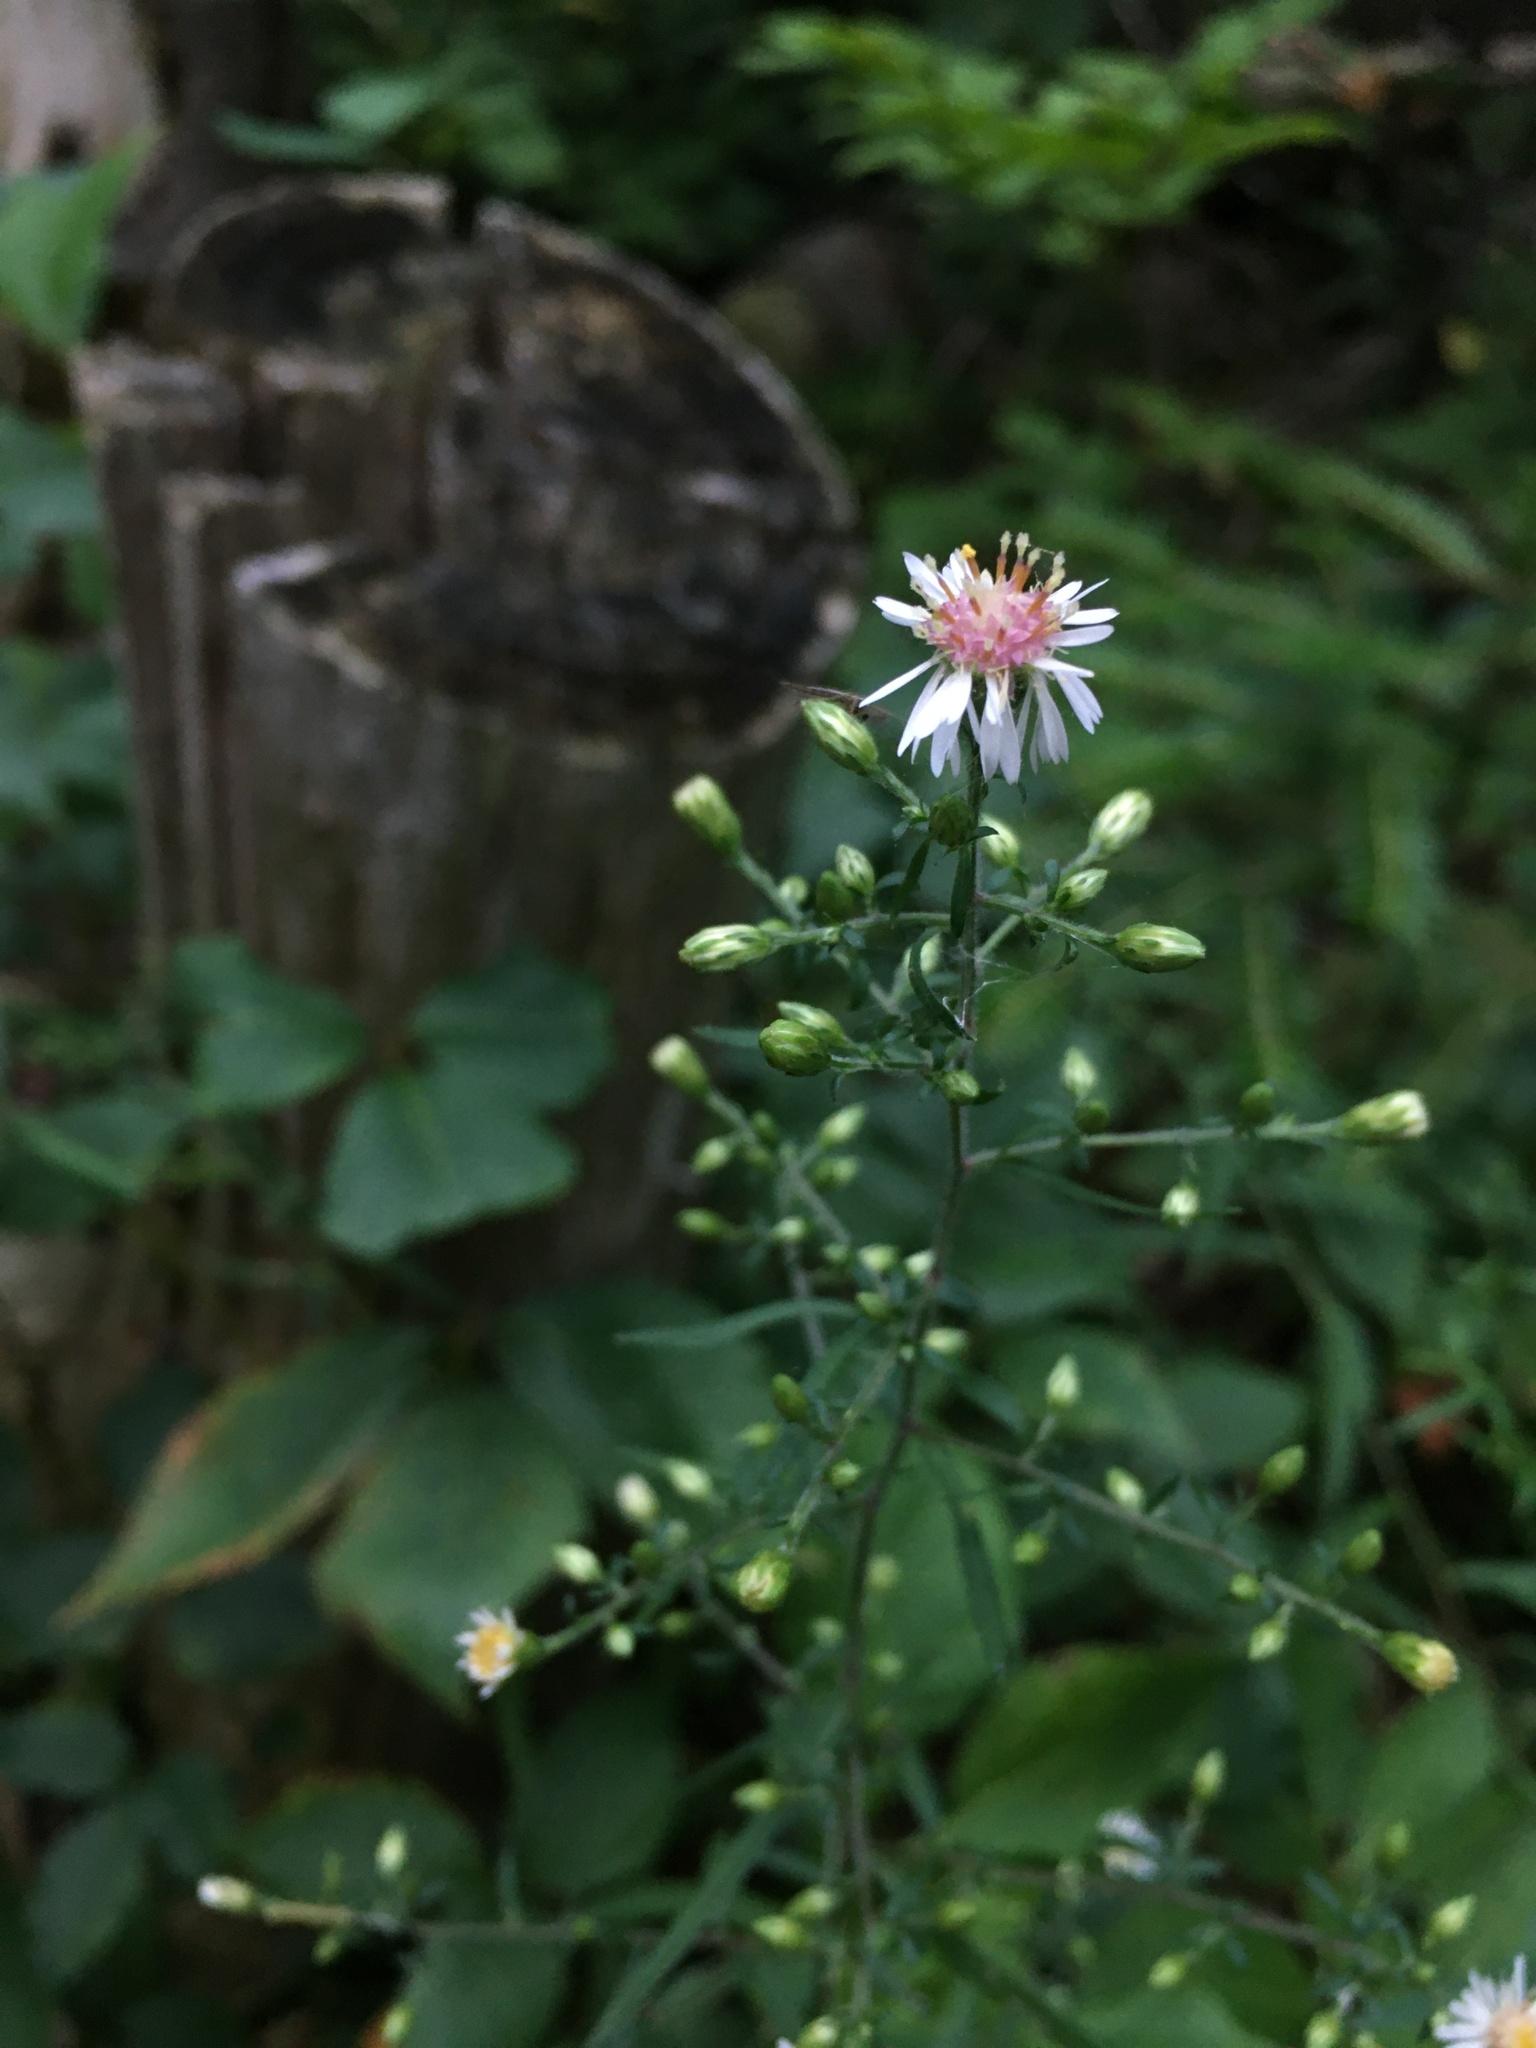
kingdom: Plantae
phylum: Tracheophyta
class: Magnoliopsida
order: Asterales
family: Asteraceae
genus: Symphyotrichum
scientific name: Symphyotrichum lateriflorum
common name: Calico aster
